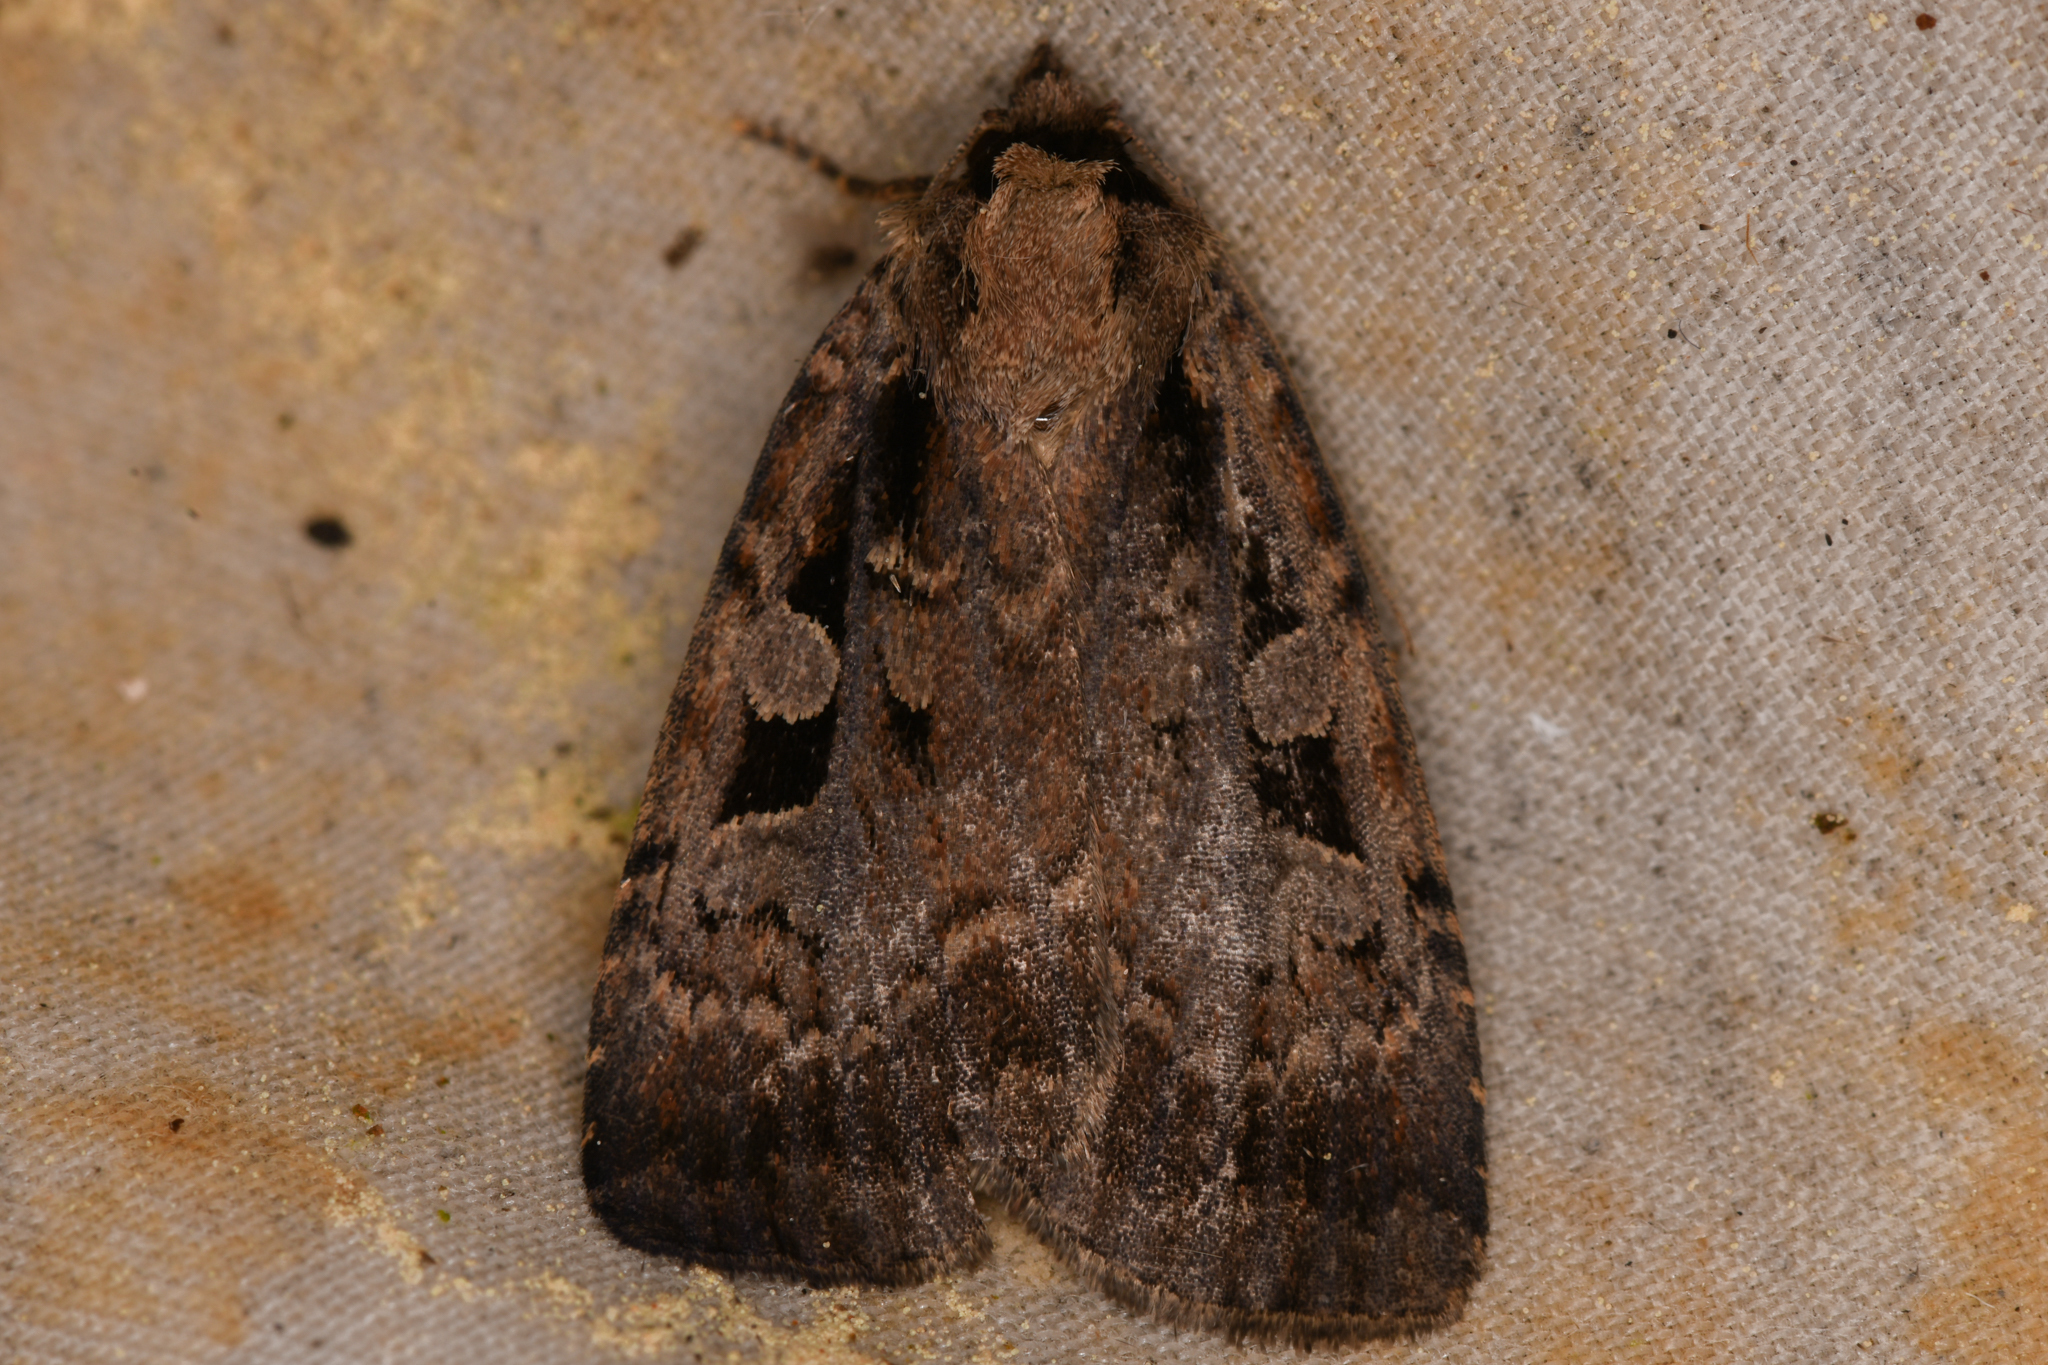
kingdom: Animalia
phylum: Arthropoda
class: Insecta
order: Lepidoptera
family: Noctuidae
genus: Eueretagrotis
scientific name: Eueretagrotis perattentus
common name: Two-spot dart moth
